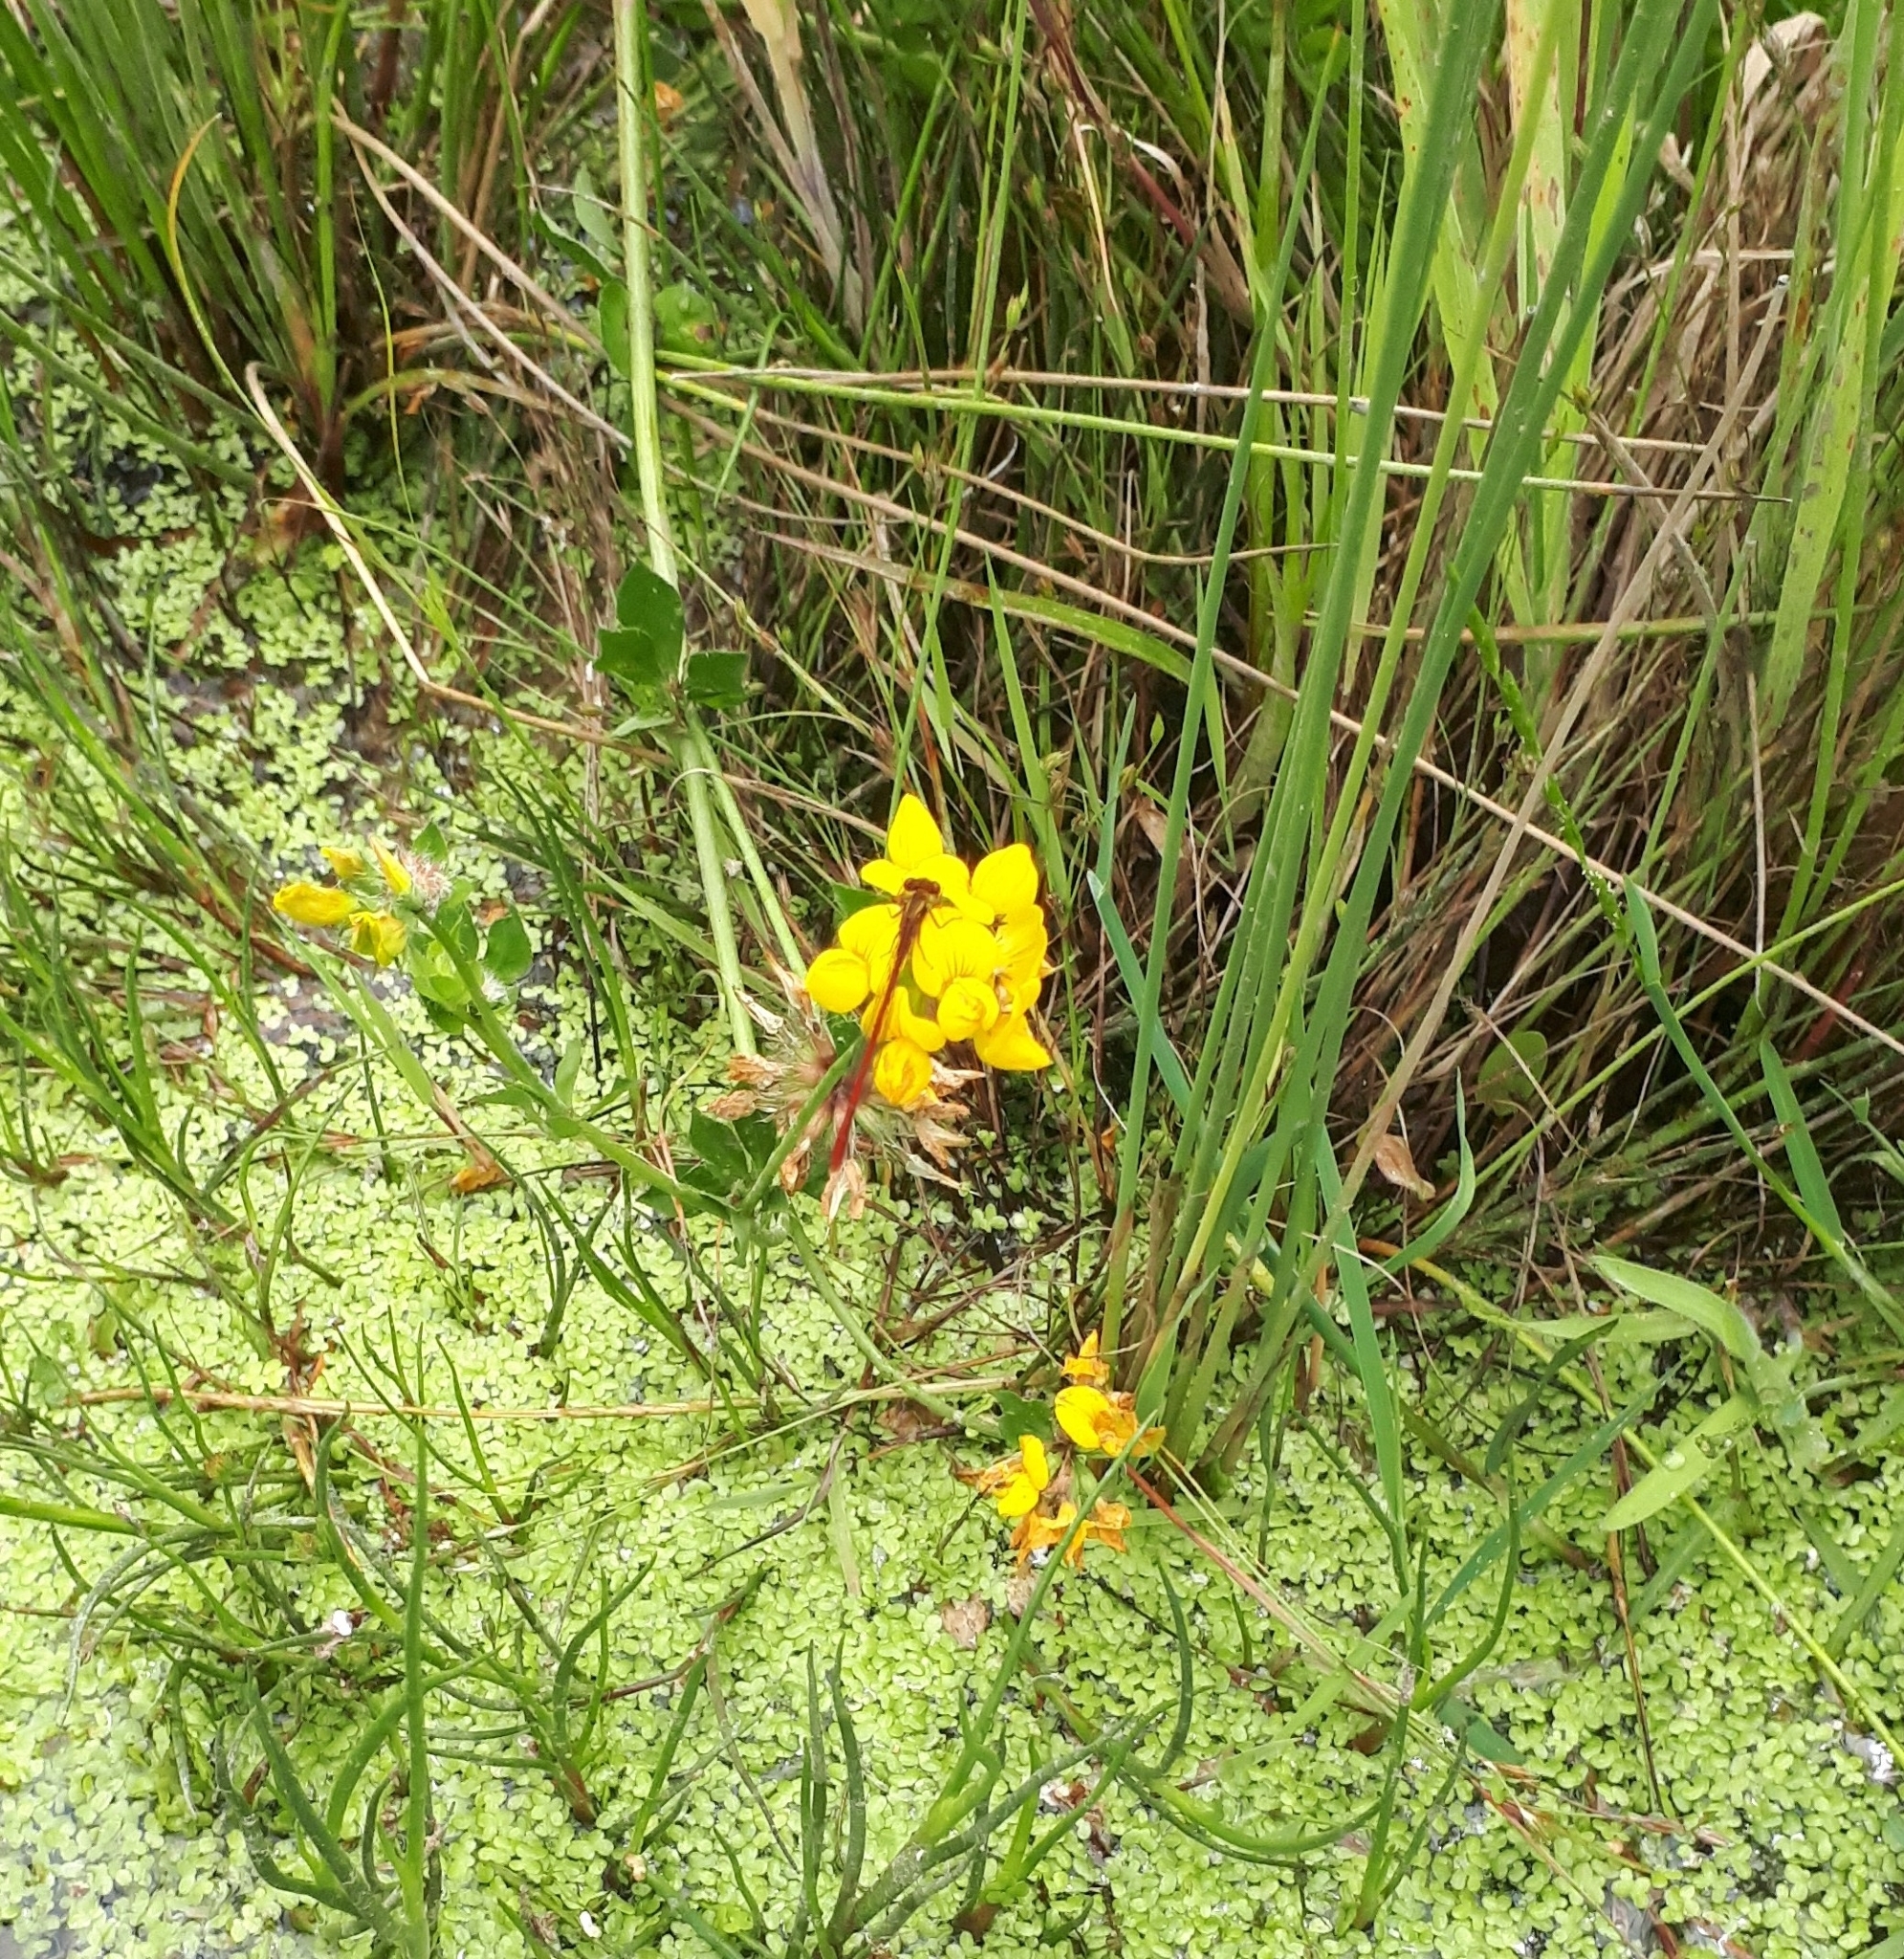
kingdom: Animalia
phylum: Arthropoda
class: Insecta
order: Odonata
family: Coenagrionidae
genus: Xanthocnemis
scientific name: Xanthocnemis zealandica
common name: Common redcoat damselfly
